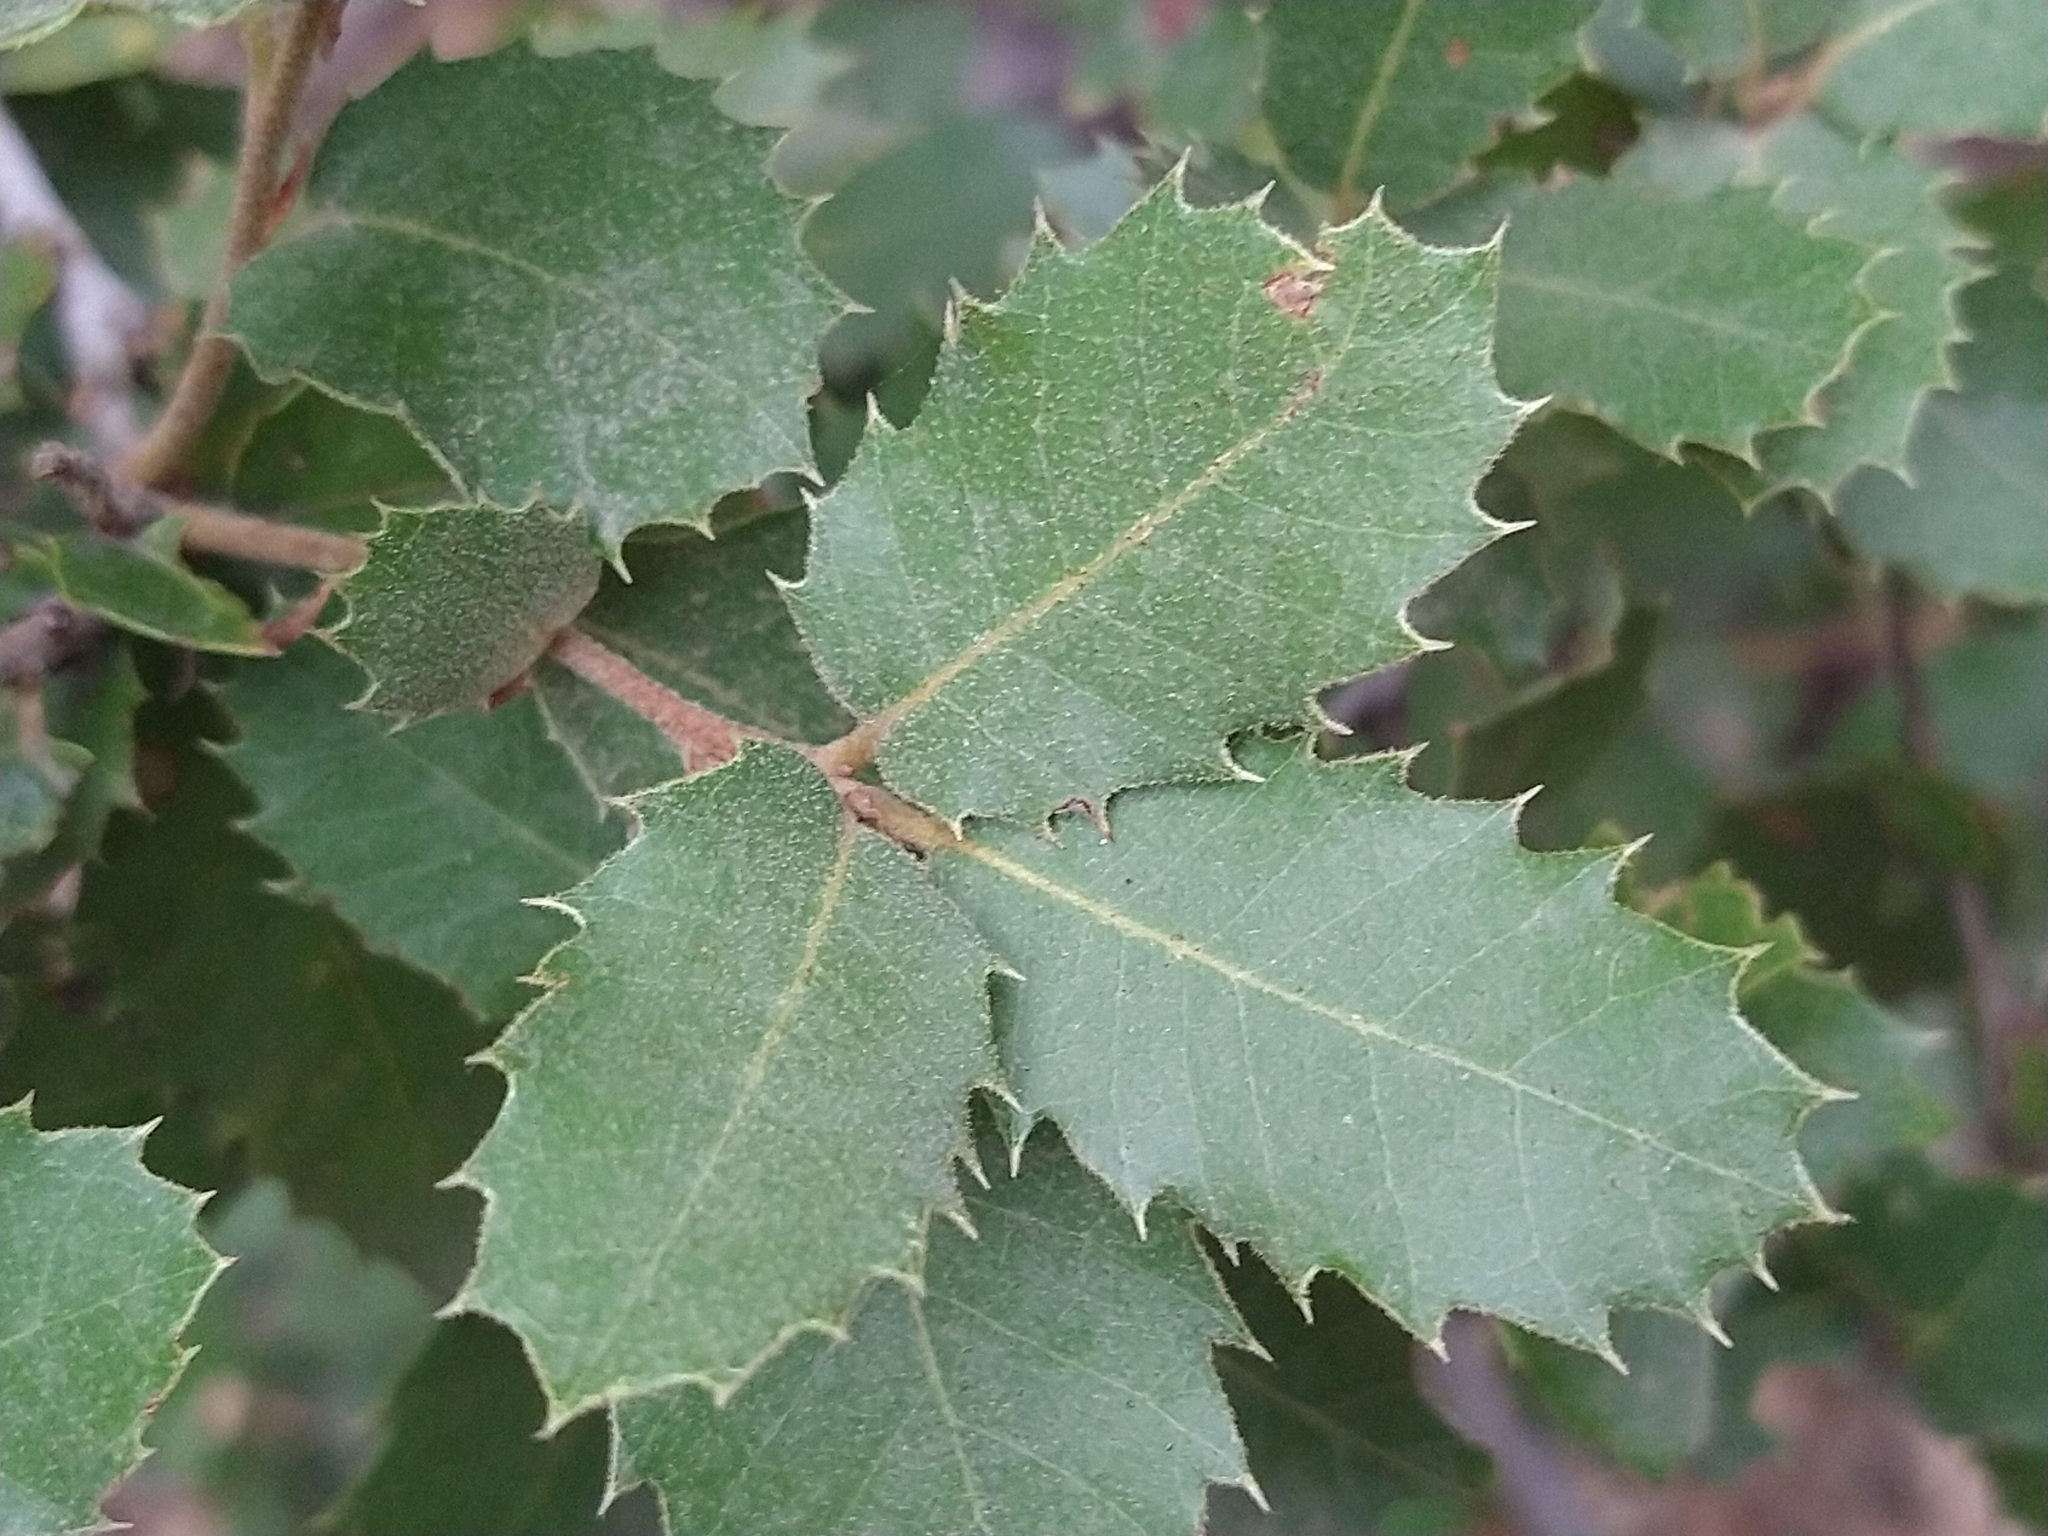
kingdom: Plantae
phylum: Tracheophyta
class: Magnoliopsida
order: Fagales
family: Fagaceae
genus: Quercus
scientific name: Quercus chrysolepis
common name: Canyon live oak
